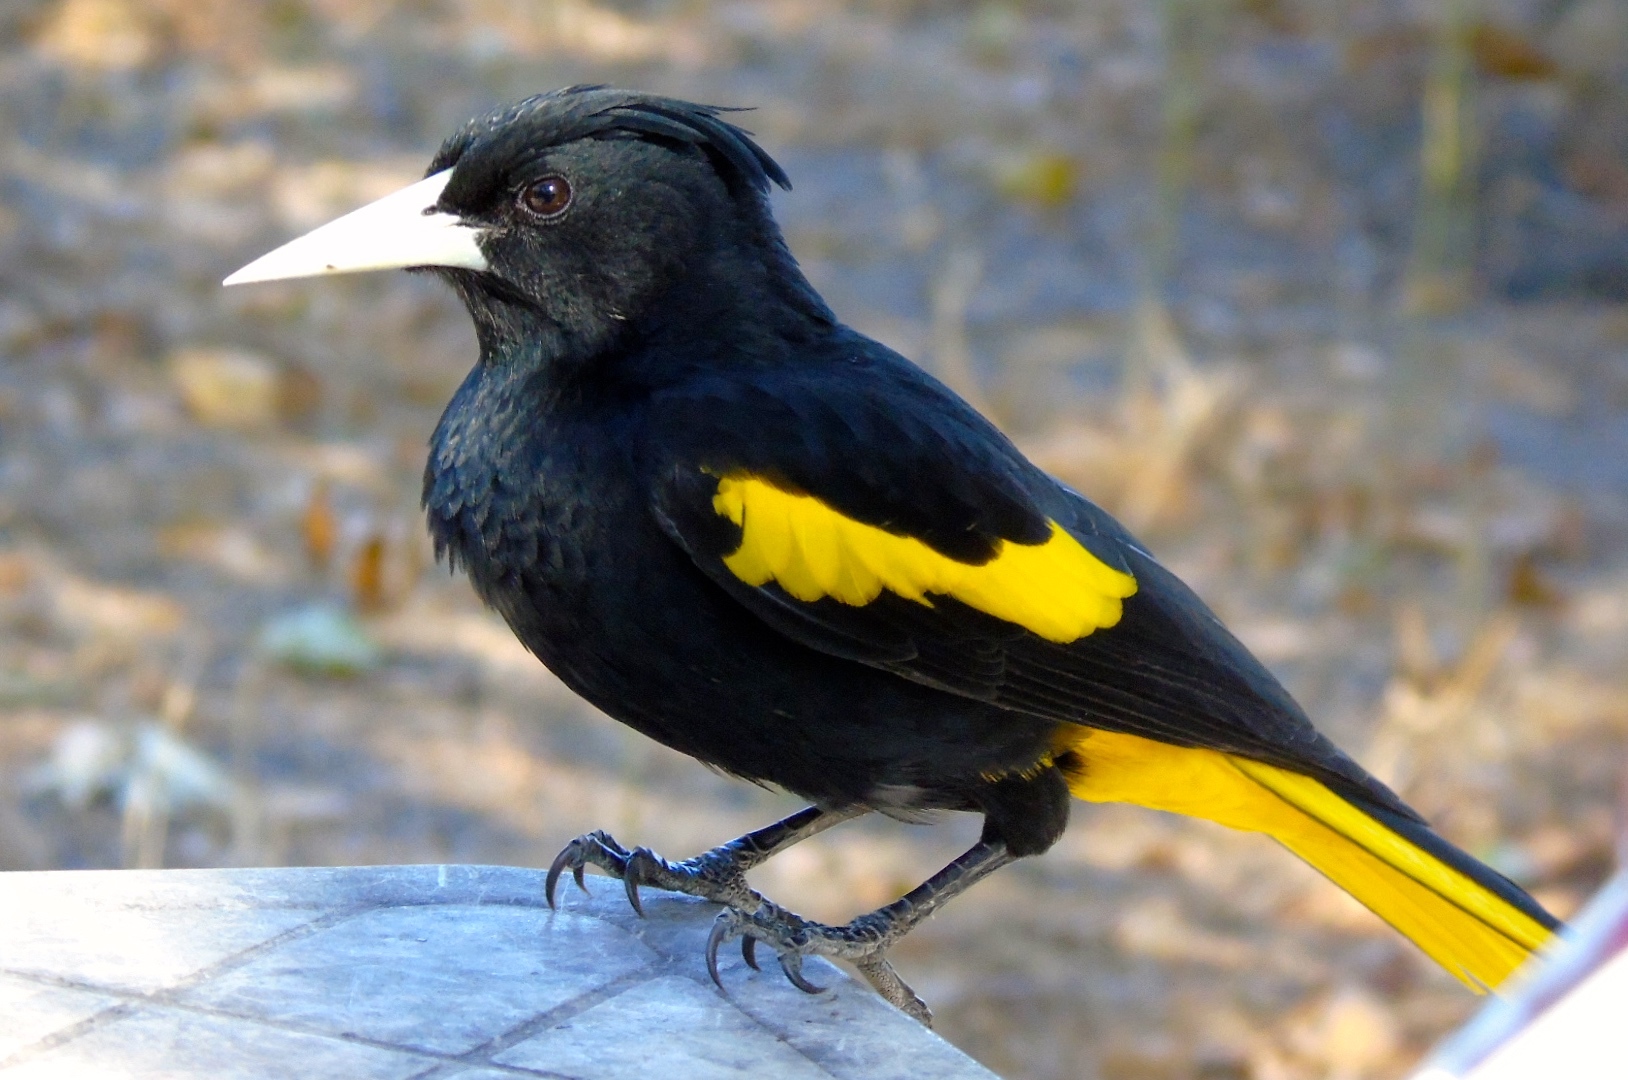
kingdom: Animalia
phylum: Chordata
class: Aves
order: Passeriformes
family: Icteridae
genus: Cacicus
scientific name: Cacicus melanicterus
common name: Yellow-winged cacique
